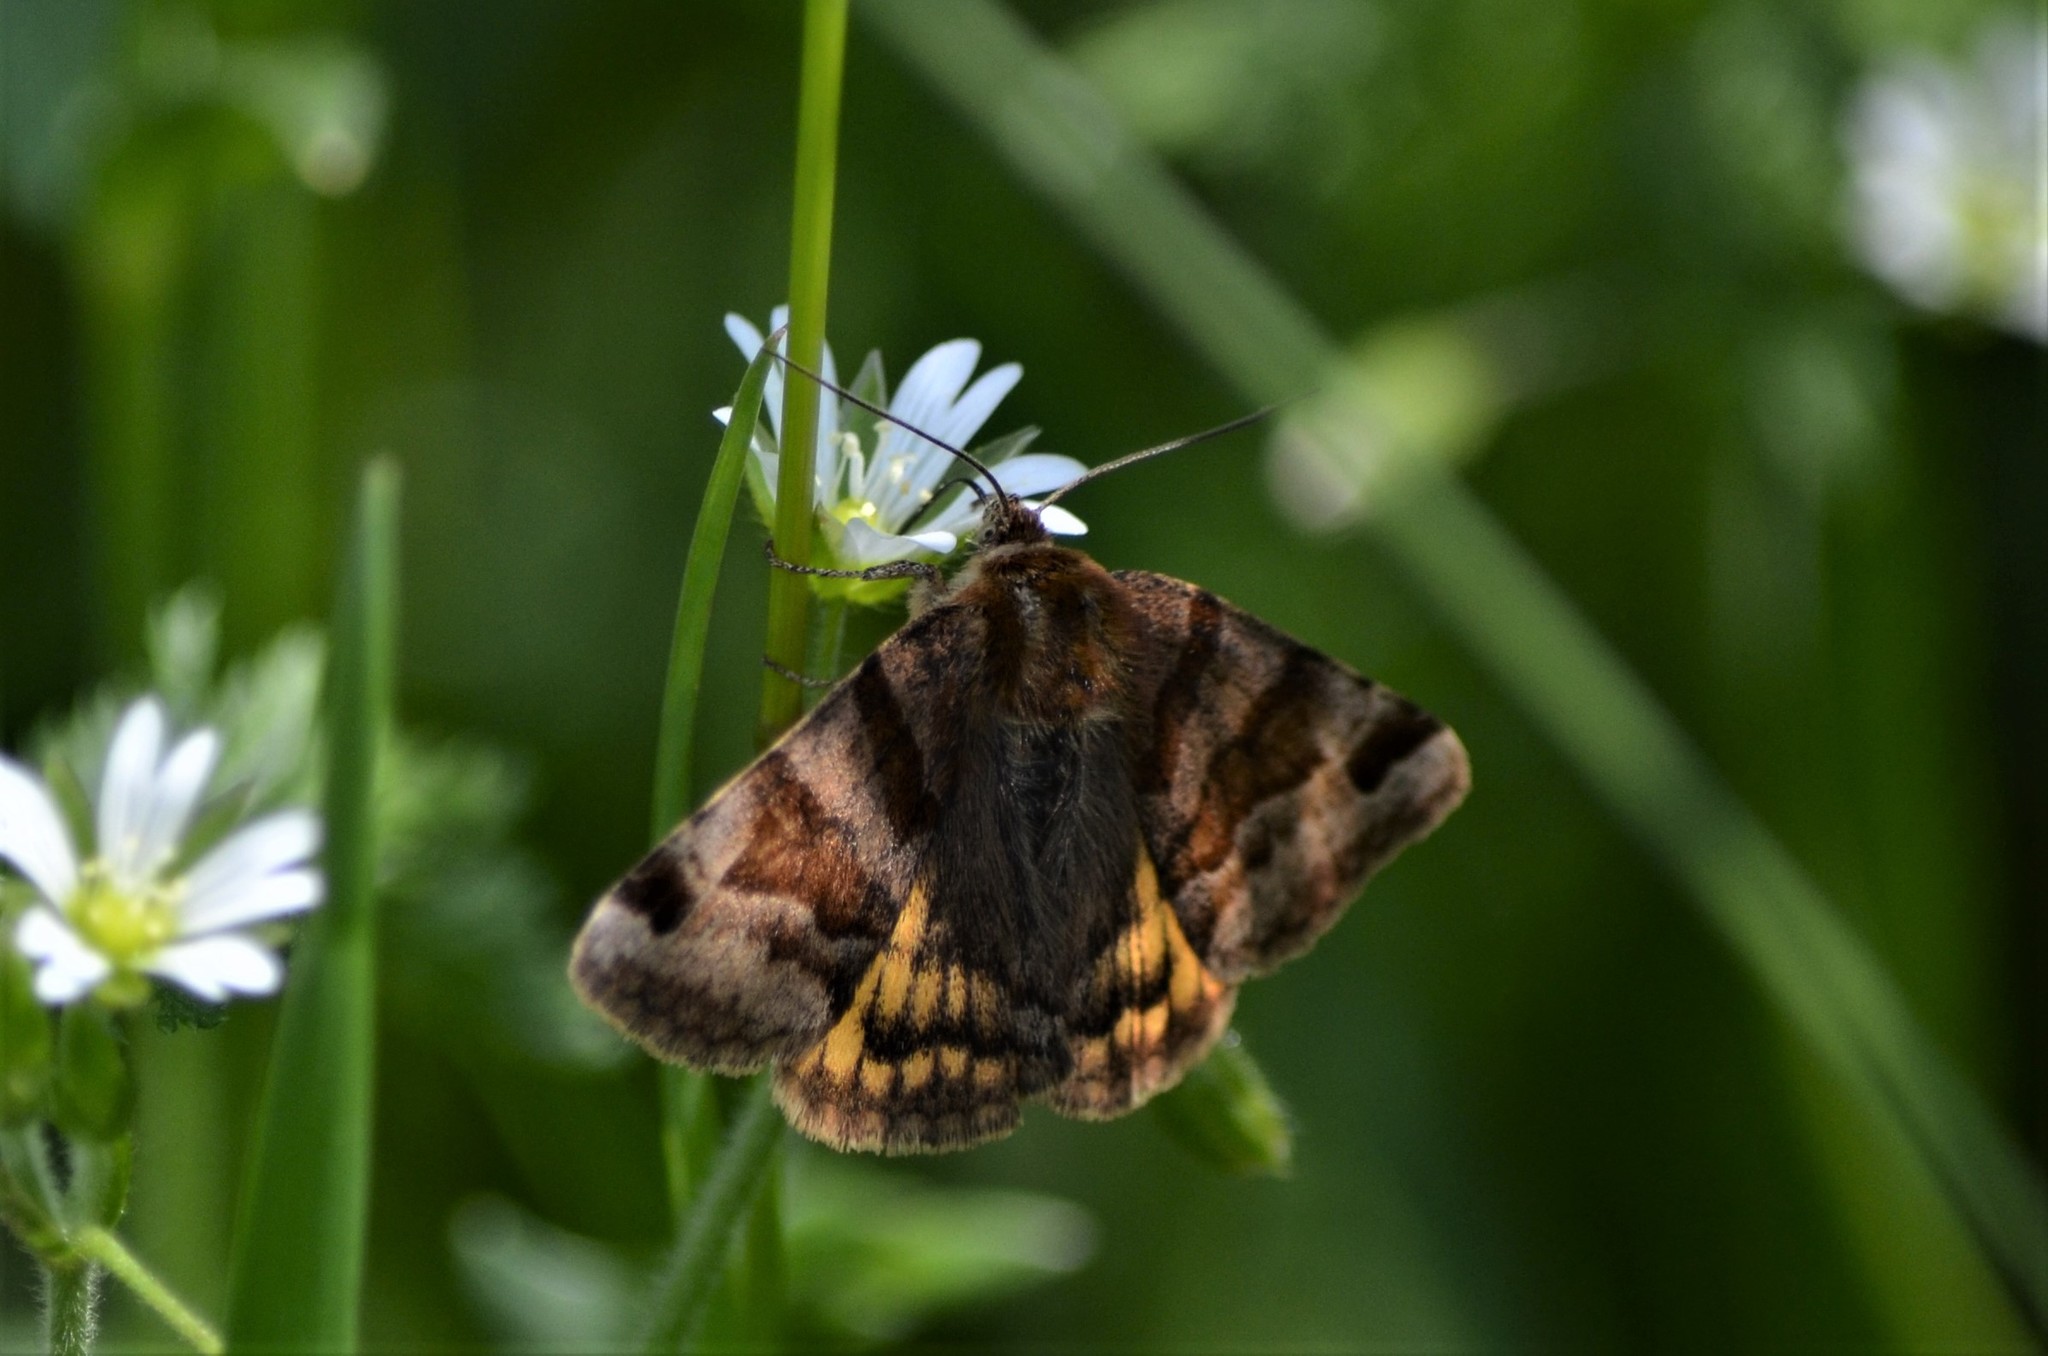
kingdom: Animalia
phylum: Arthropoda
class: Insecta
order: Lepidoptera
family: Erebidae
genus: Euclidia
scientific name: Euclidia glyphica
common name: Burnet companion
